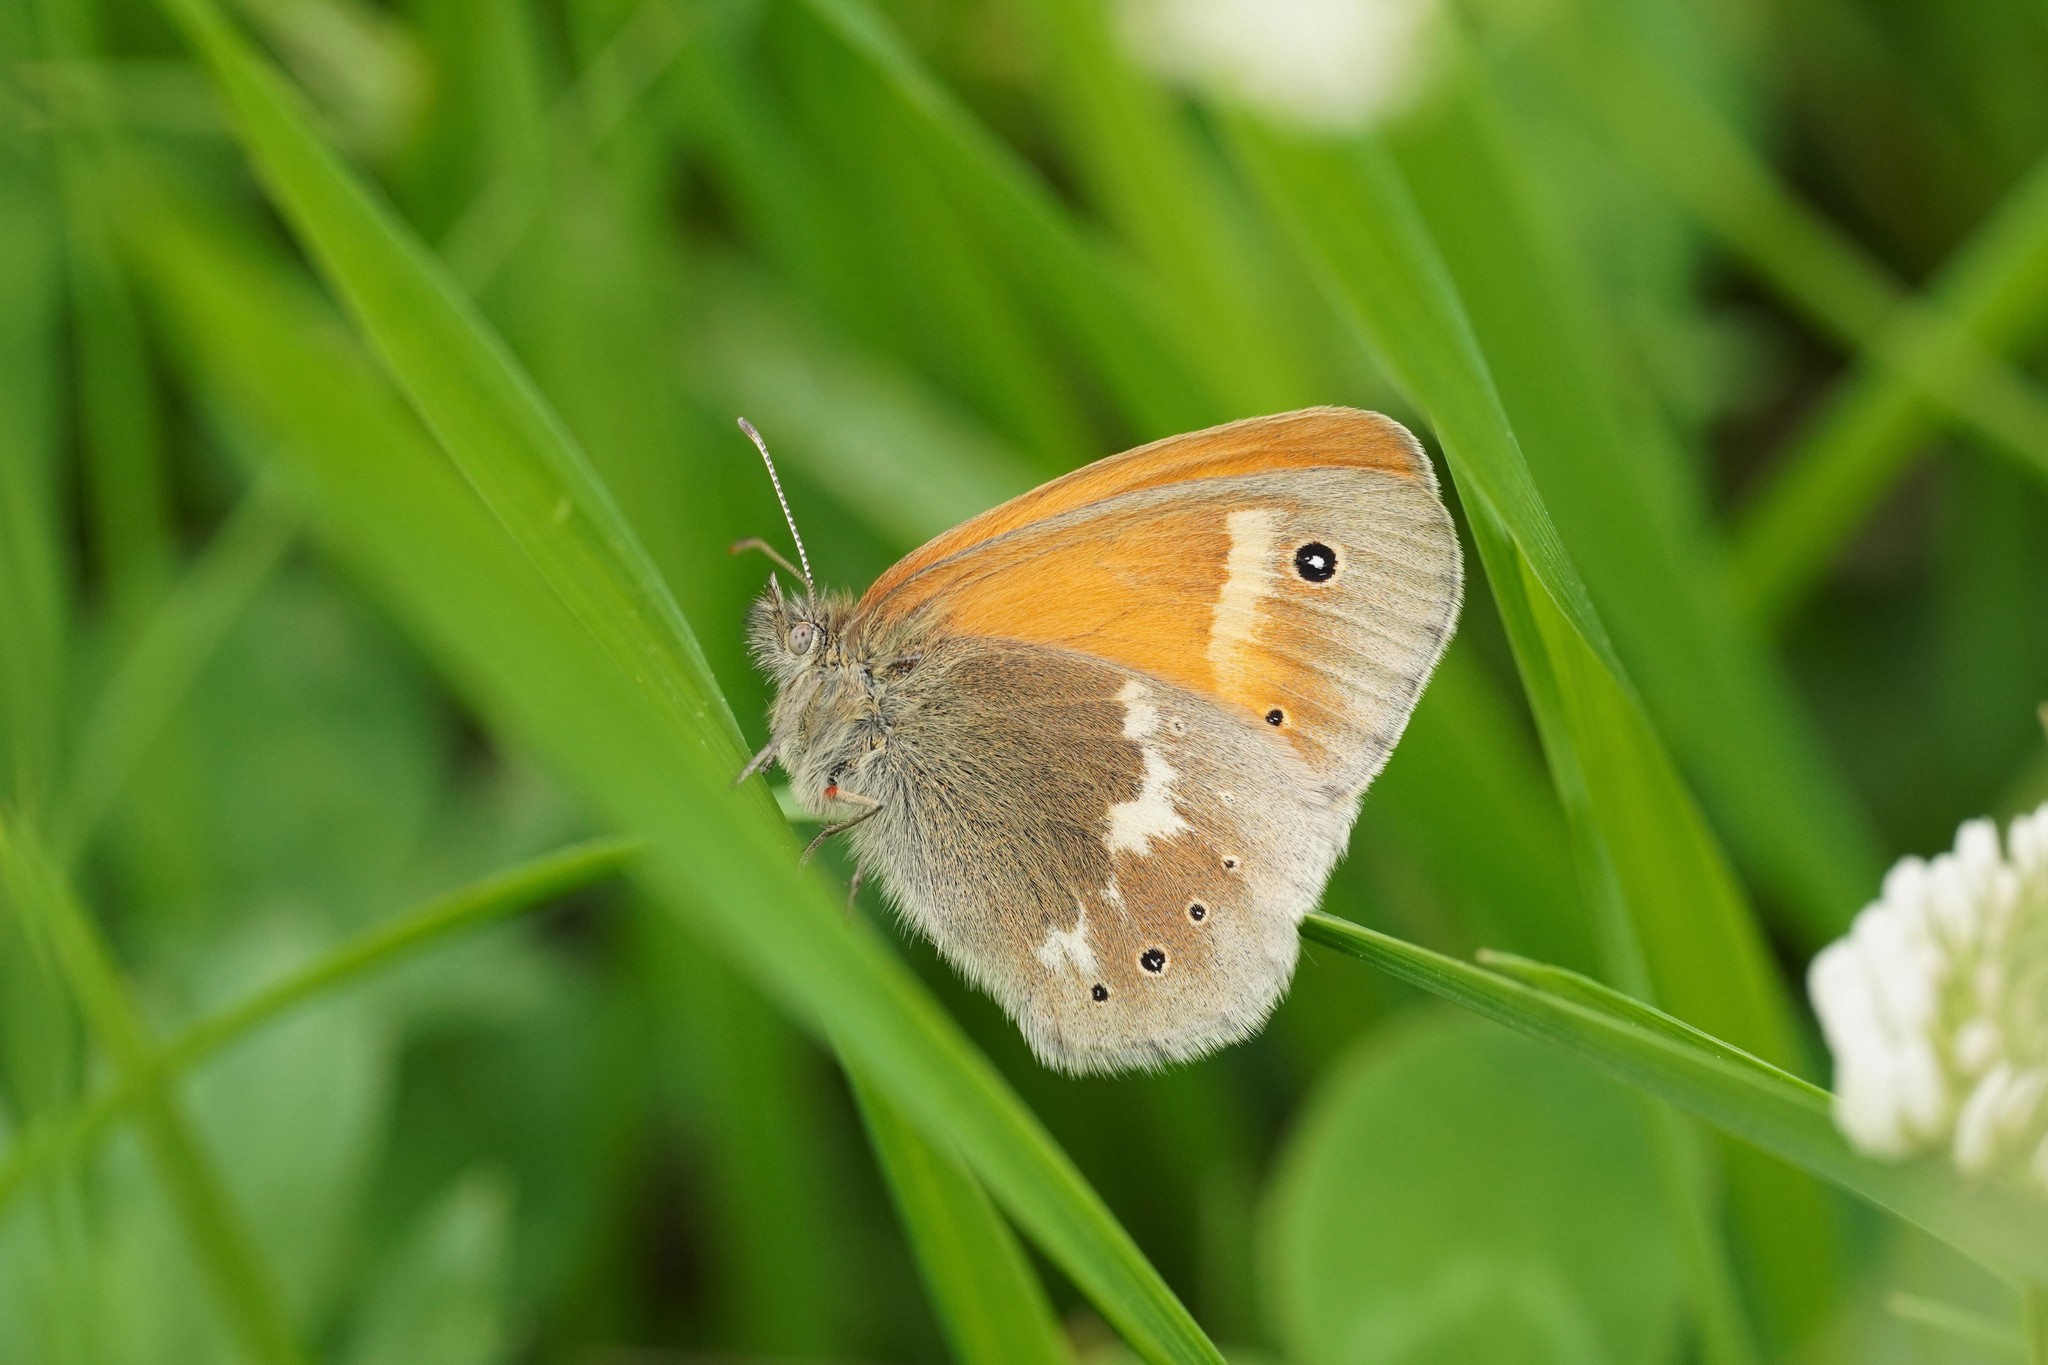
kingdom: Animalia
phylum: Arthropoda
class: Insecta
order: Lepidoptera
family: Nymphalidae
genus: Coenonympha
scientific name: Coenonympha tullia
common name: Large heath
